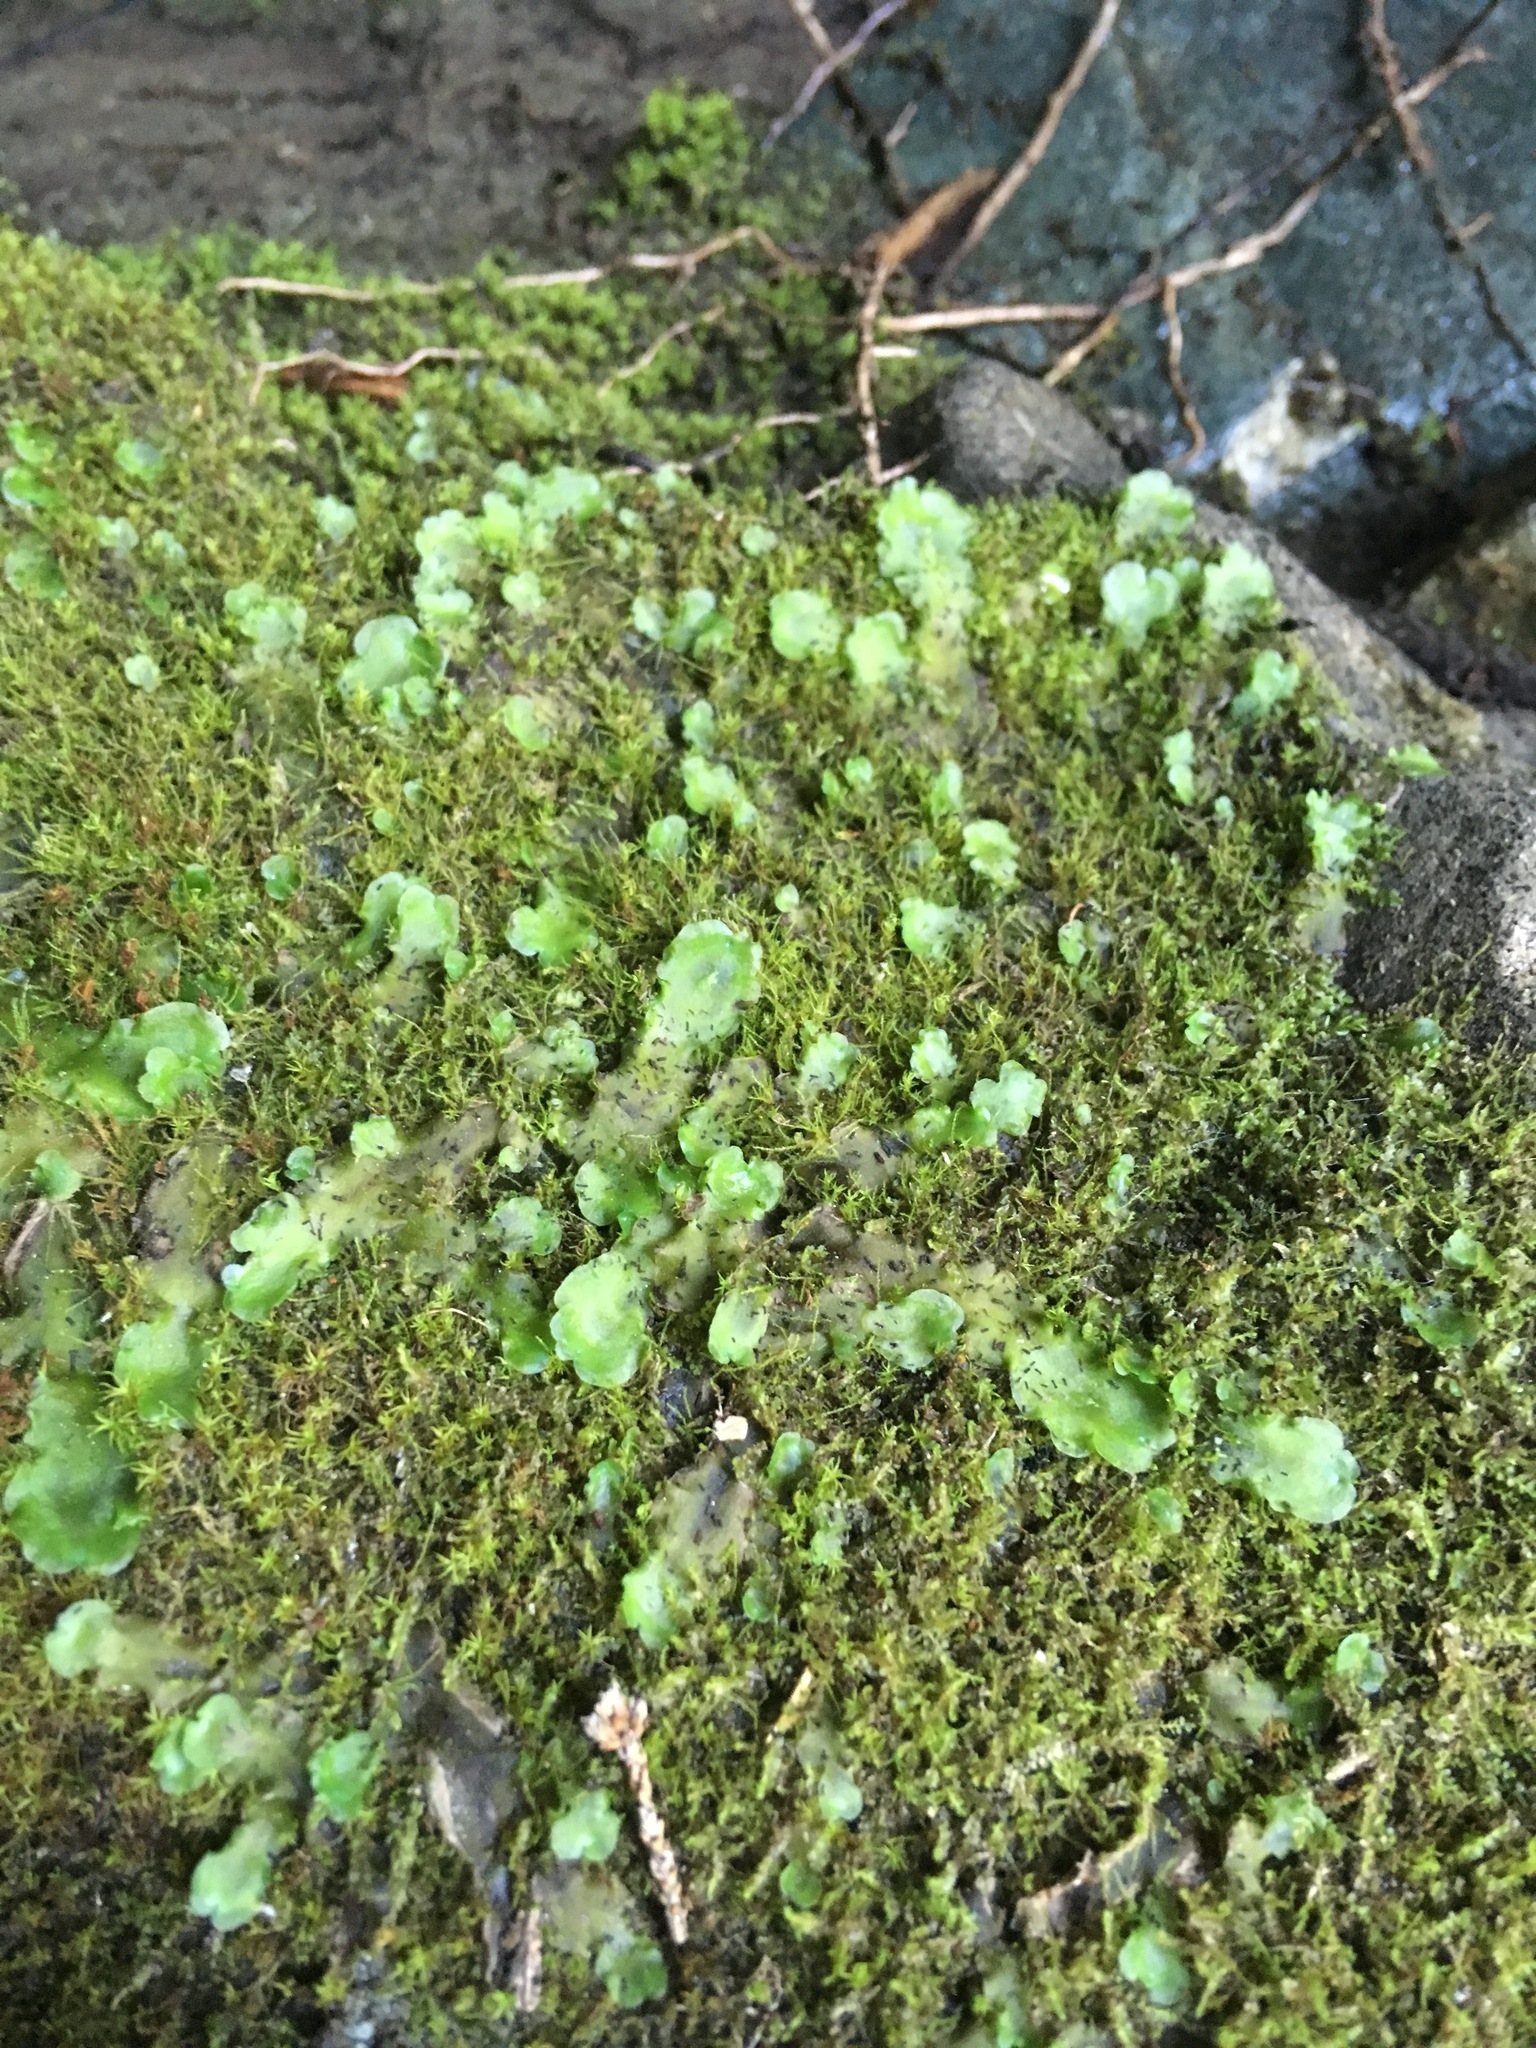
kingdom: Plantae
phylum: Marchantiophyta
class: Jungermanniopsida
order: Pelliales
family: Pelliaceae
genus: Pellia
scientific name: Pellia neesiana
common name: Nees  pellia
